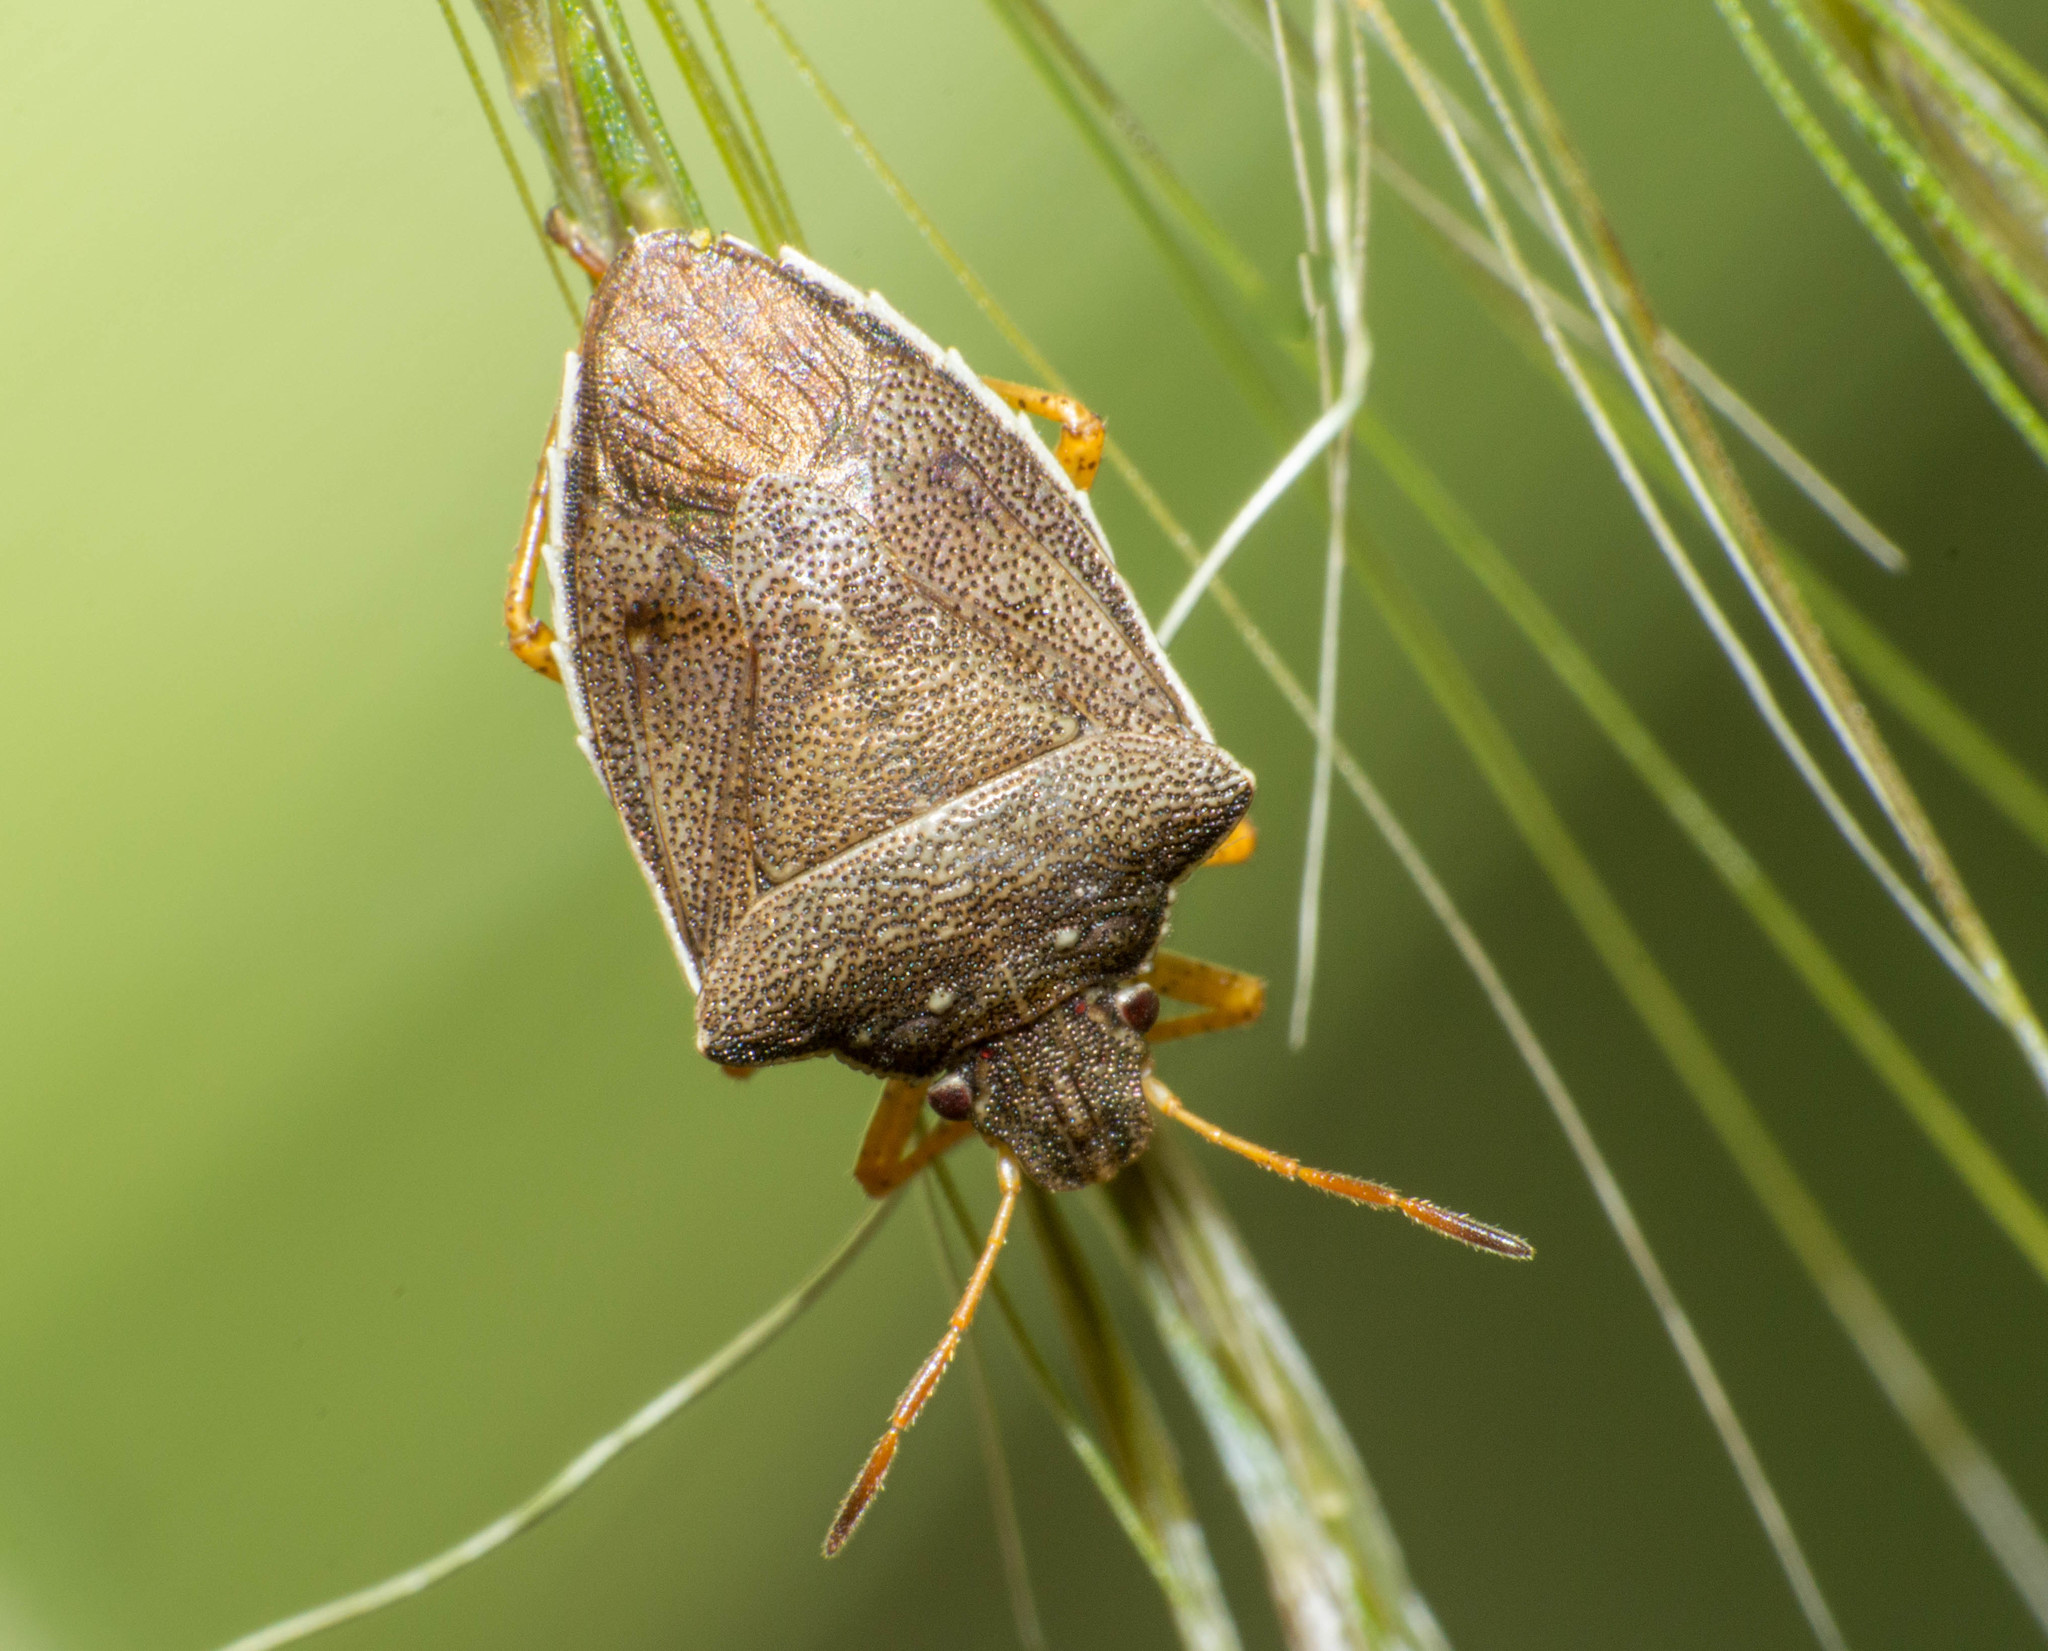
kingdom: Animalia
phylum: Arthropoda
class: Insecta
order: Hemiptera
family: Pentatomidae
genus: Mormidea
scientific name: Mormidea
